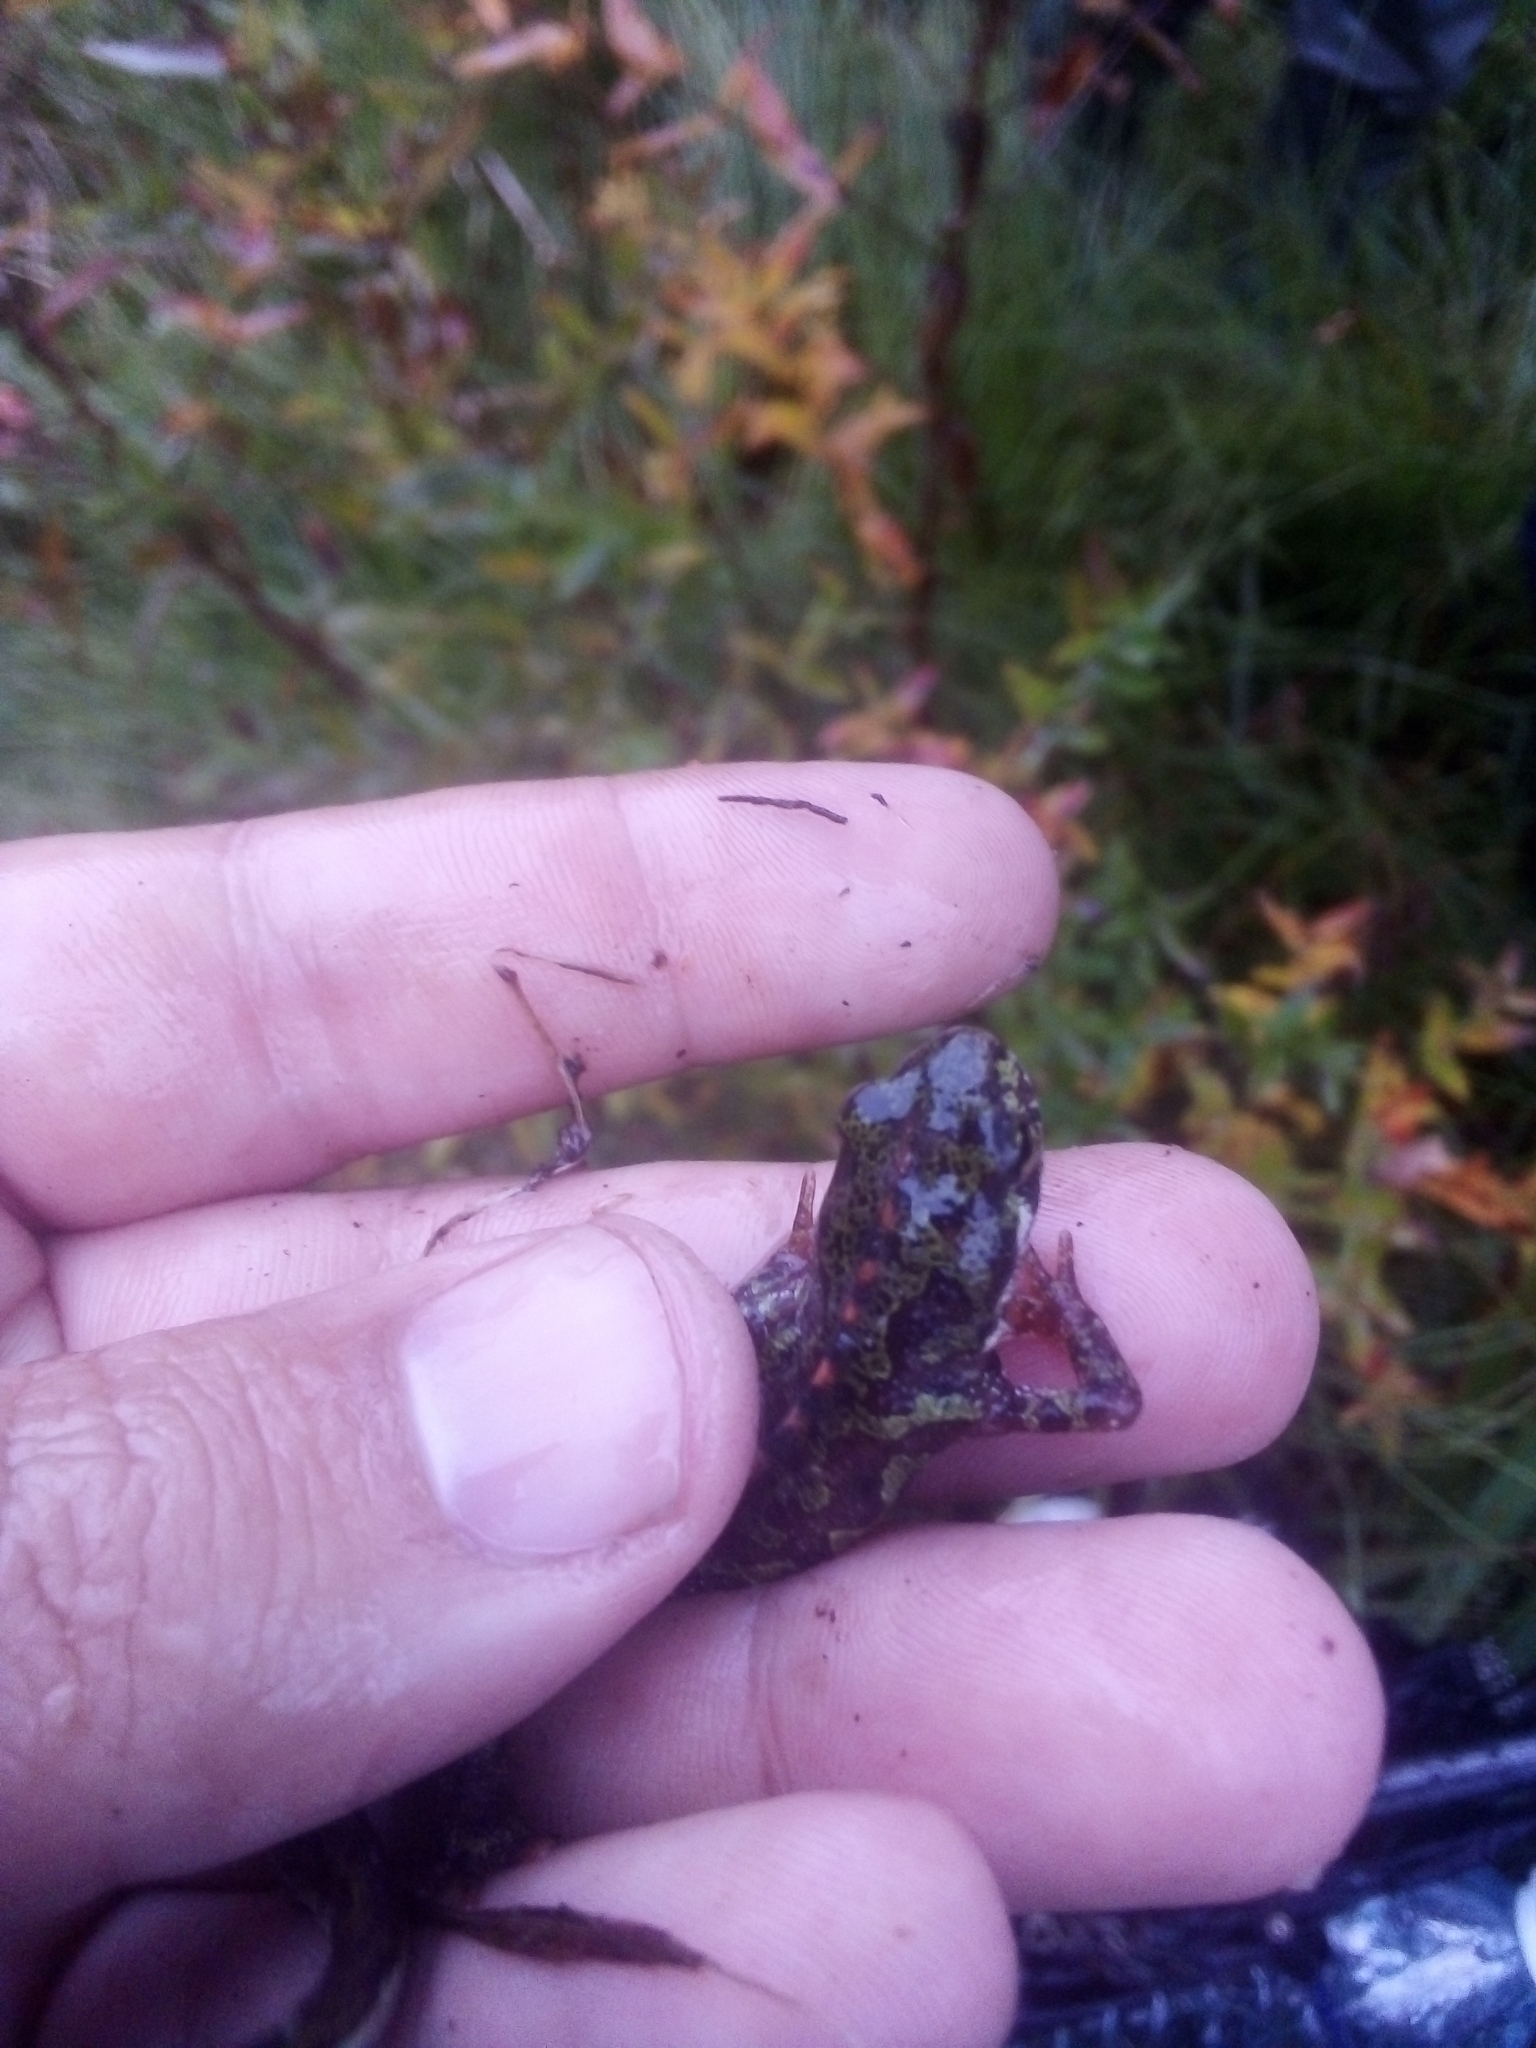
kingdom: Animalia
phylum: Chordata
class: Amphibia
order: Caudata
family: Salamandridae
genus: Triturus
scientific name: Triturus marmoratus
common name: Marbled newt
